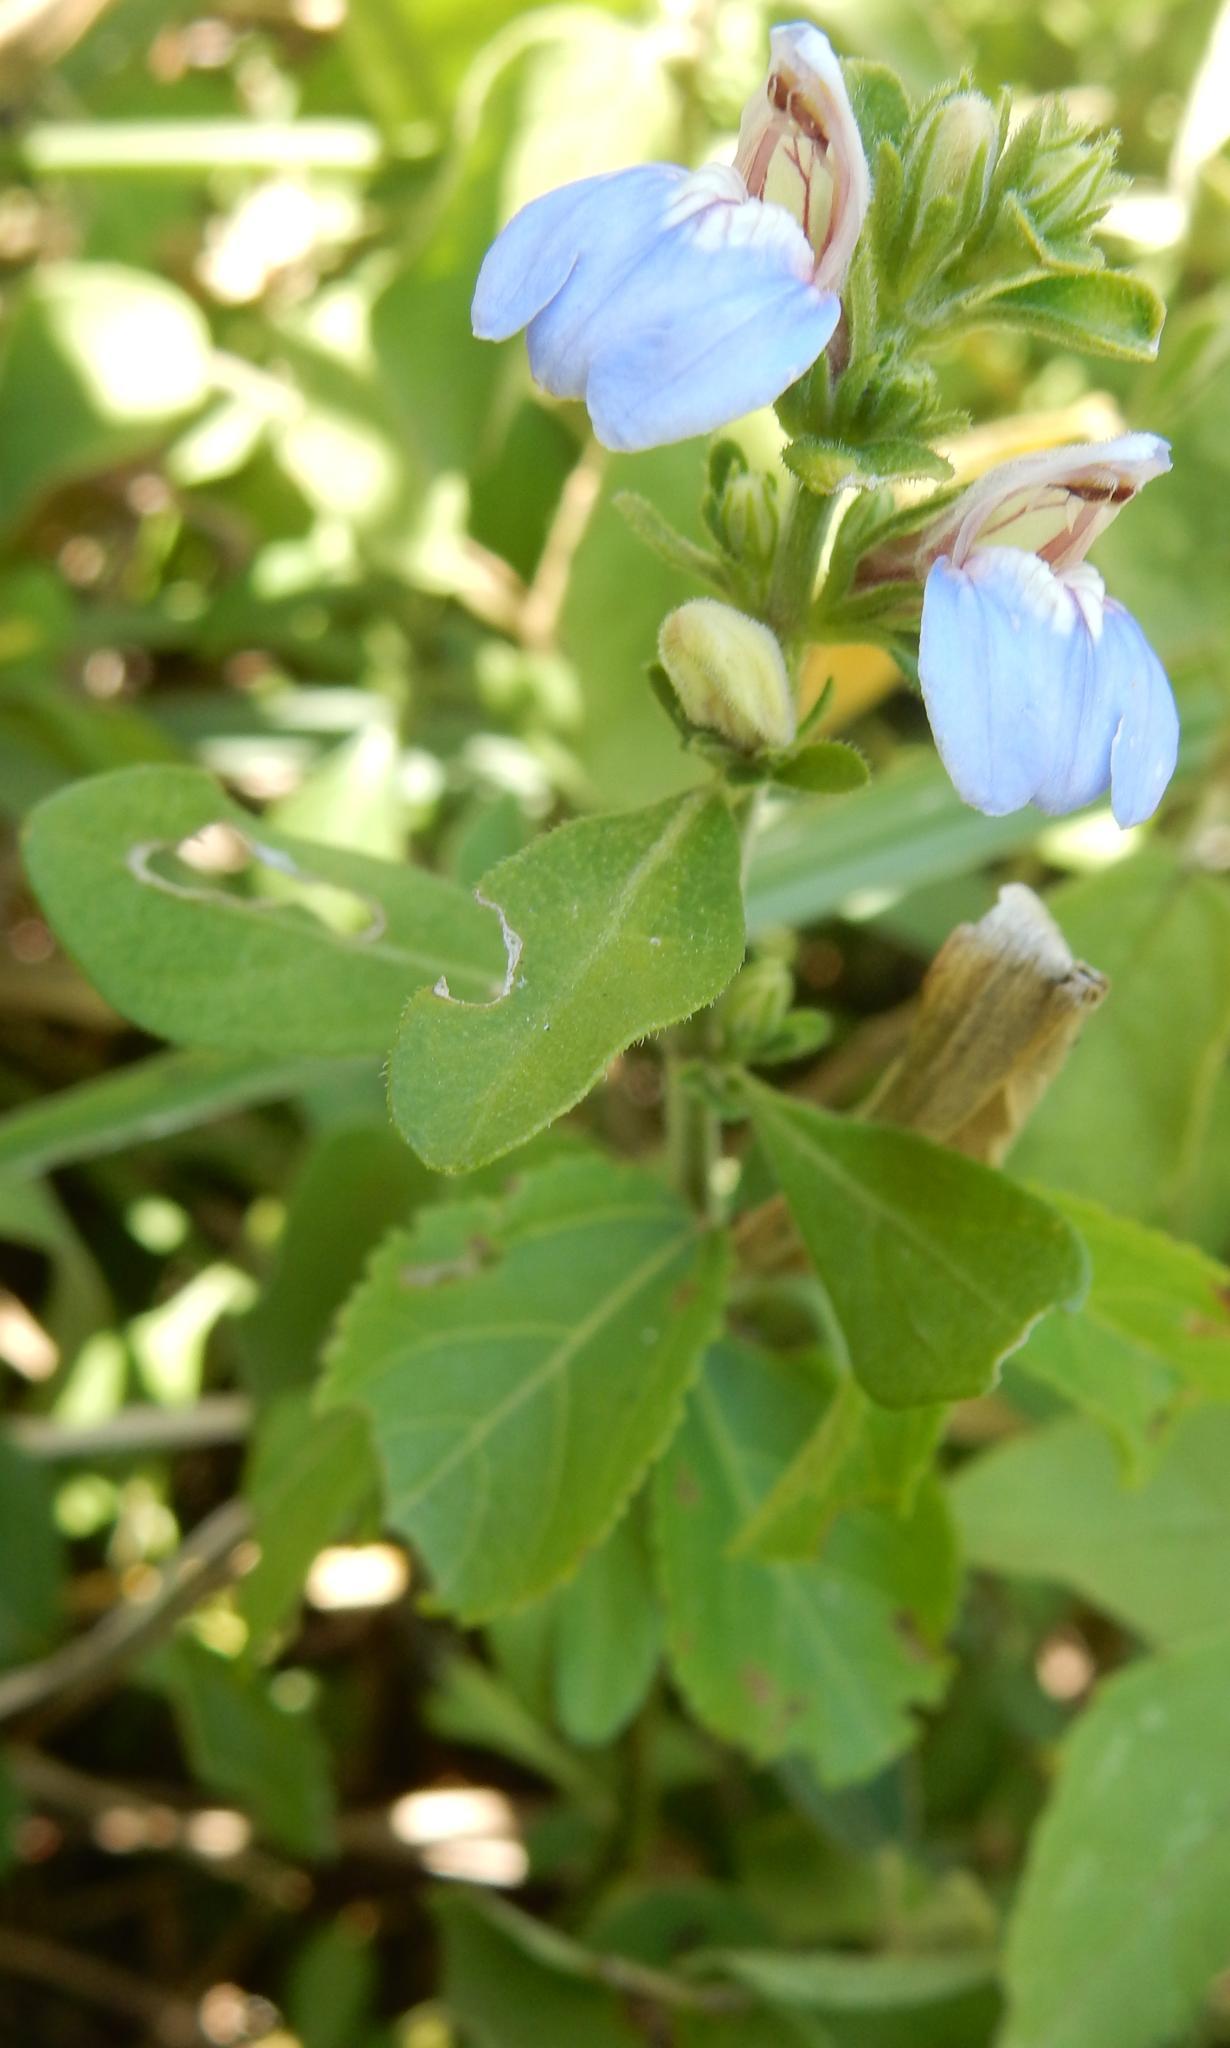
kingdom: Plantae
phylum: Tracheophyta
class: Magnoliopsida
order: Lamiales
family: Acanthaceae
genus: Justicia
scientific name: Justicia petiolaris
